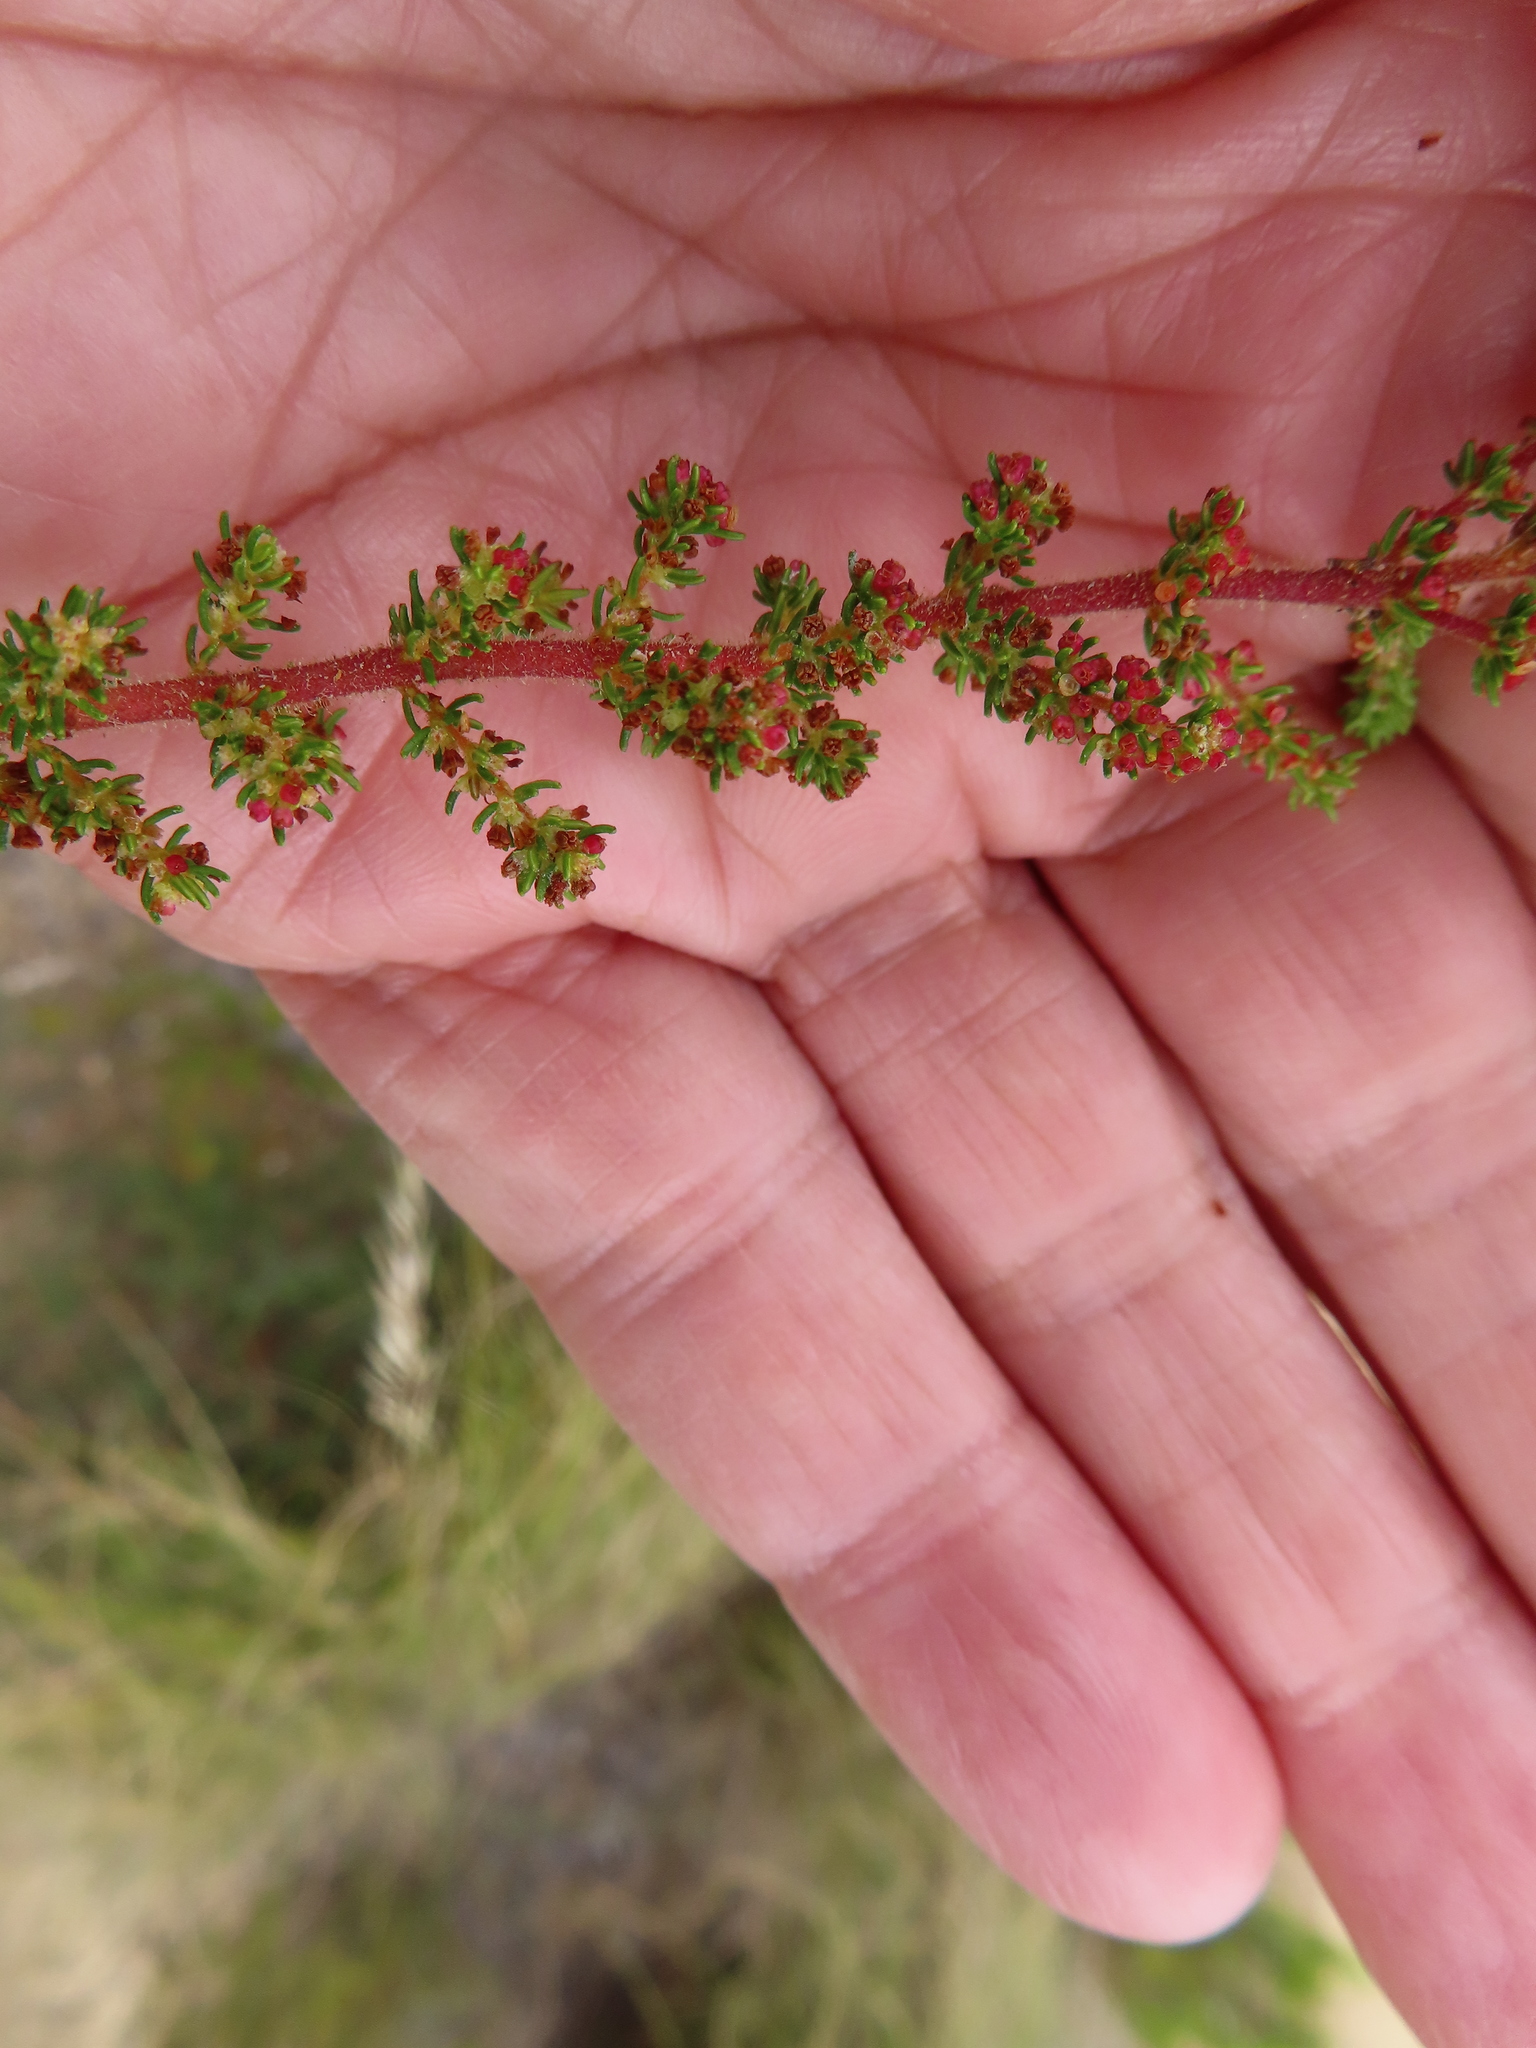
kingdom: Plantae
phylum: Tracheophyta
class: Magnoliopsida
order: Ericales
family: Ericaceae
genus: Erica
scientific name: Erica muscosa
